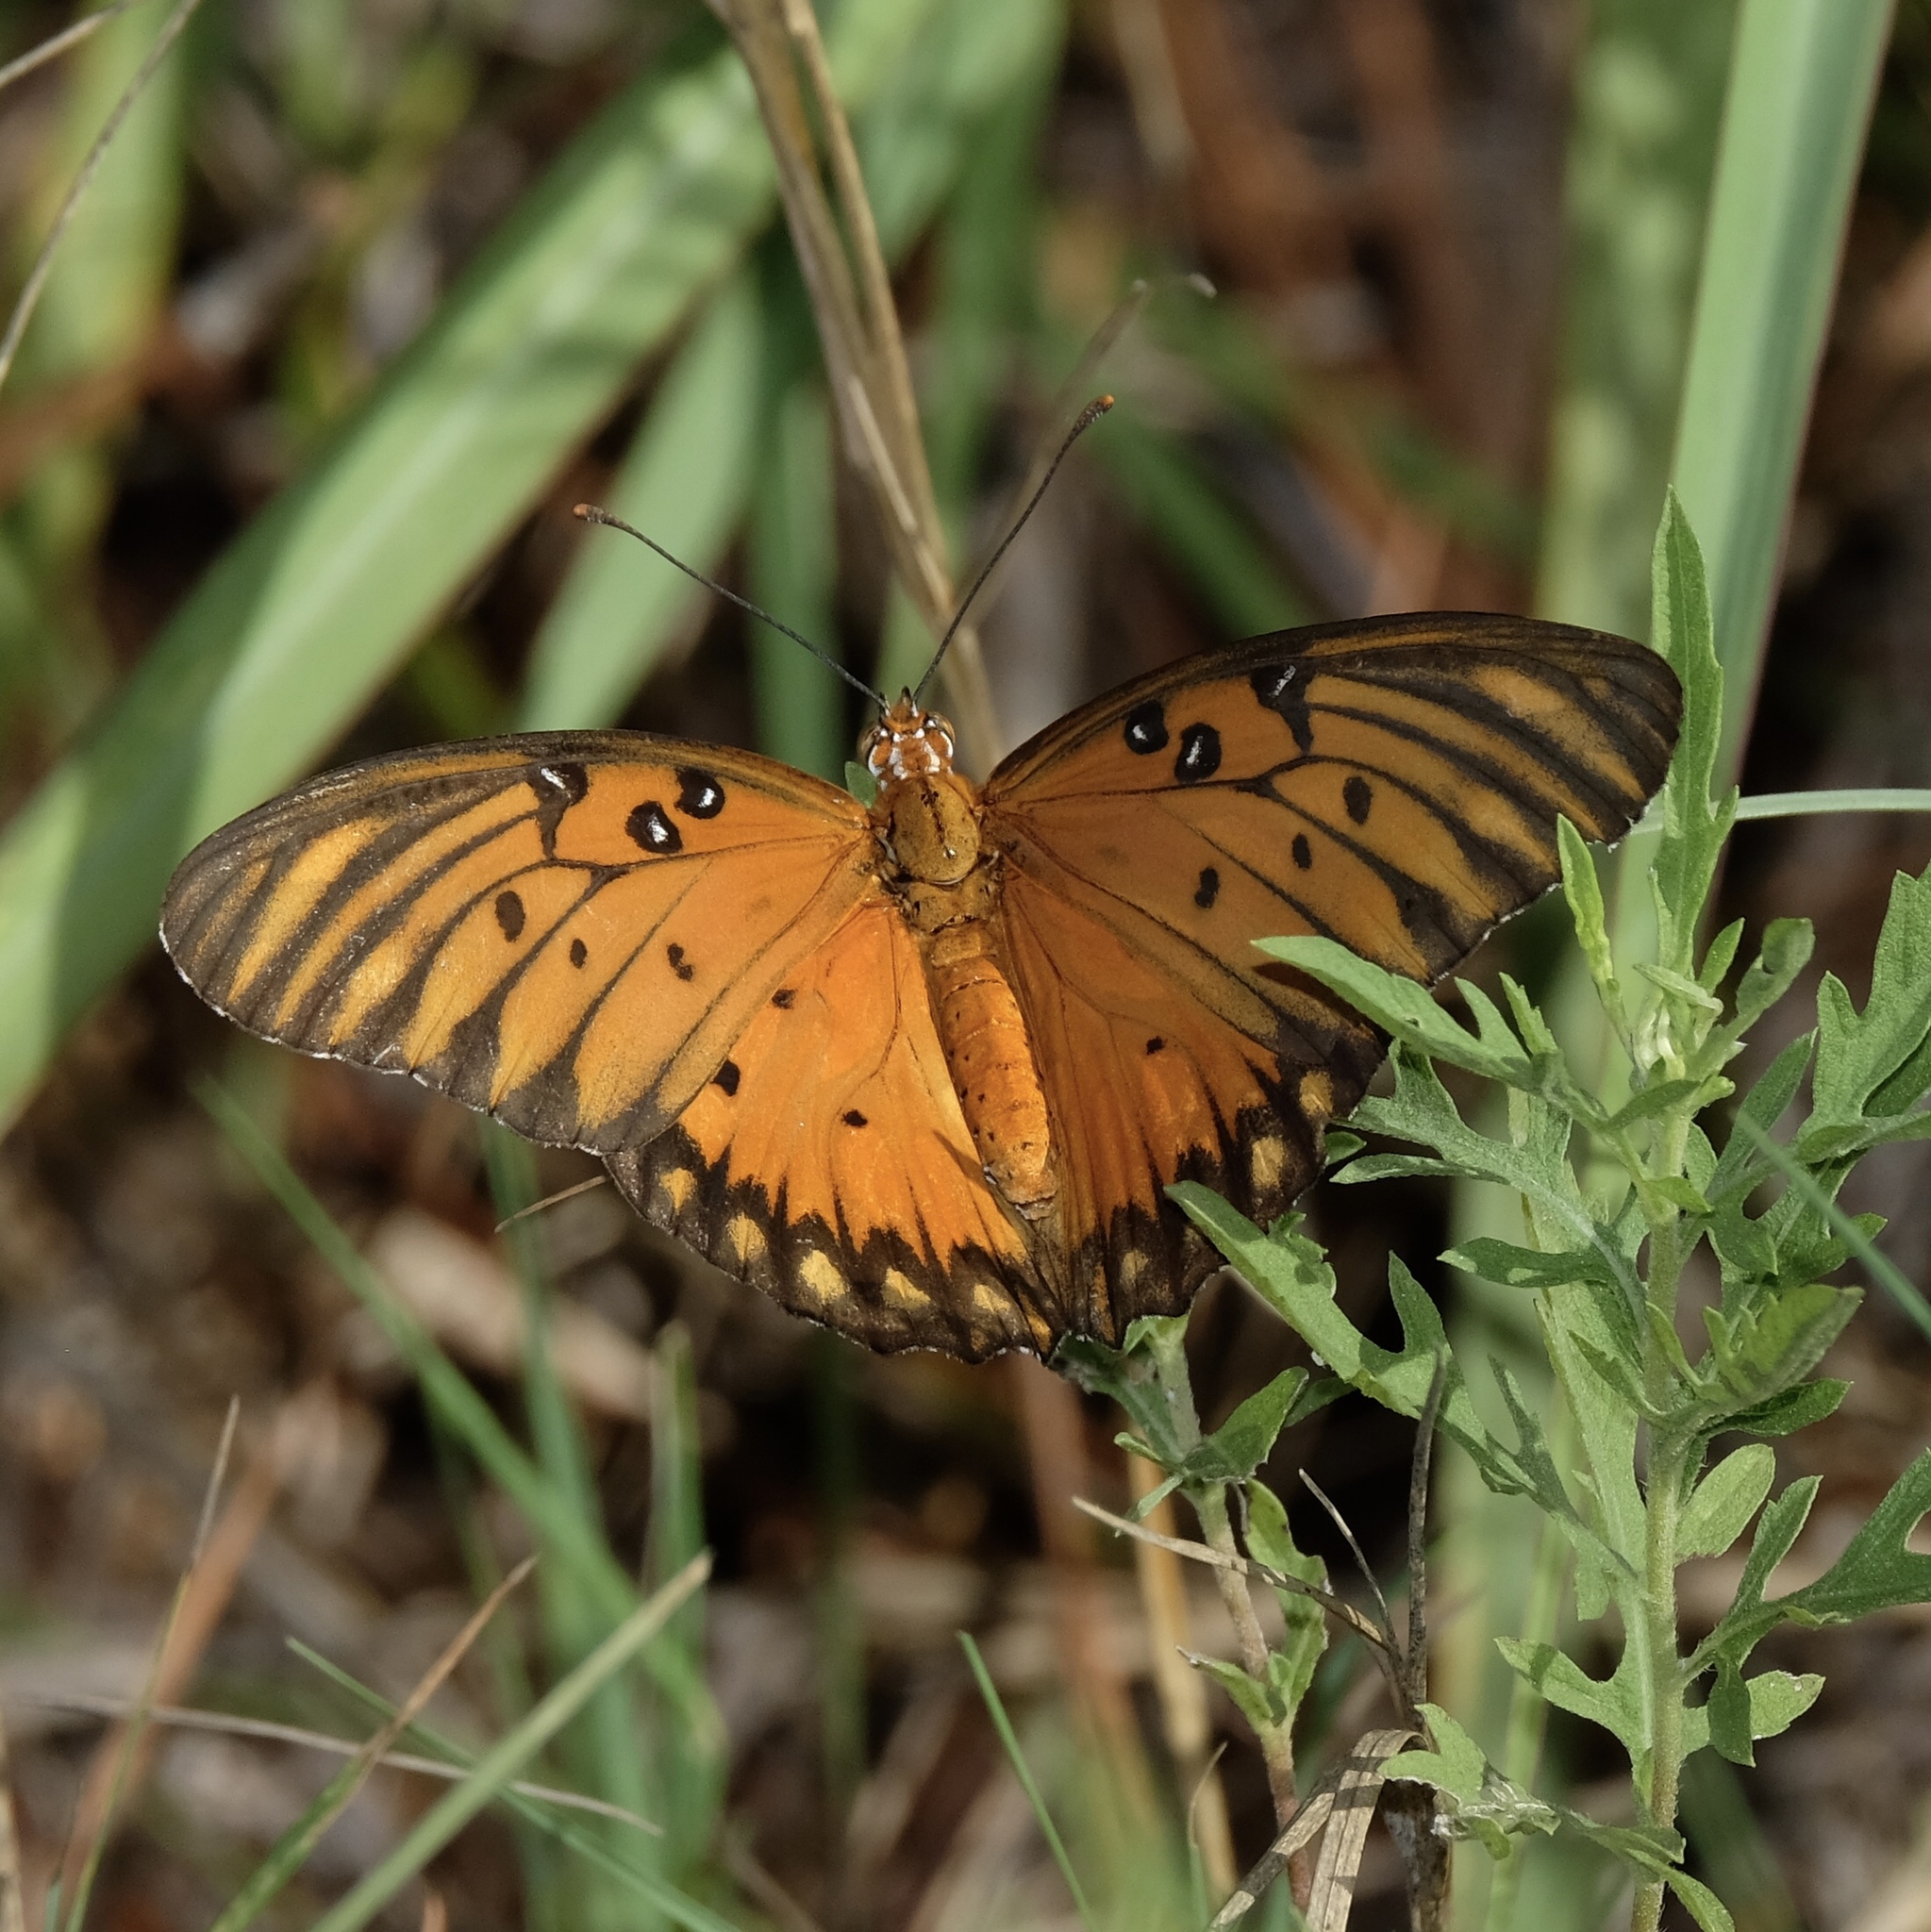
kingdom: Animalia
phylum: Arthropoda
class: Insecta
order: Lepidoptera
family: Nymphalidae
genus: Dione
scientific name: Dione vanillae
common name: Gulf fritillary
